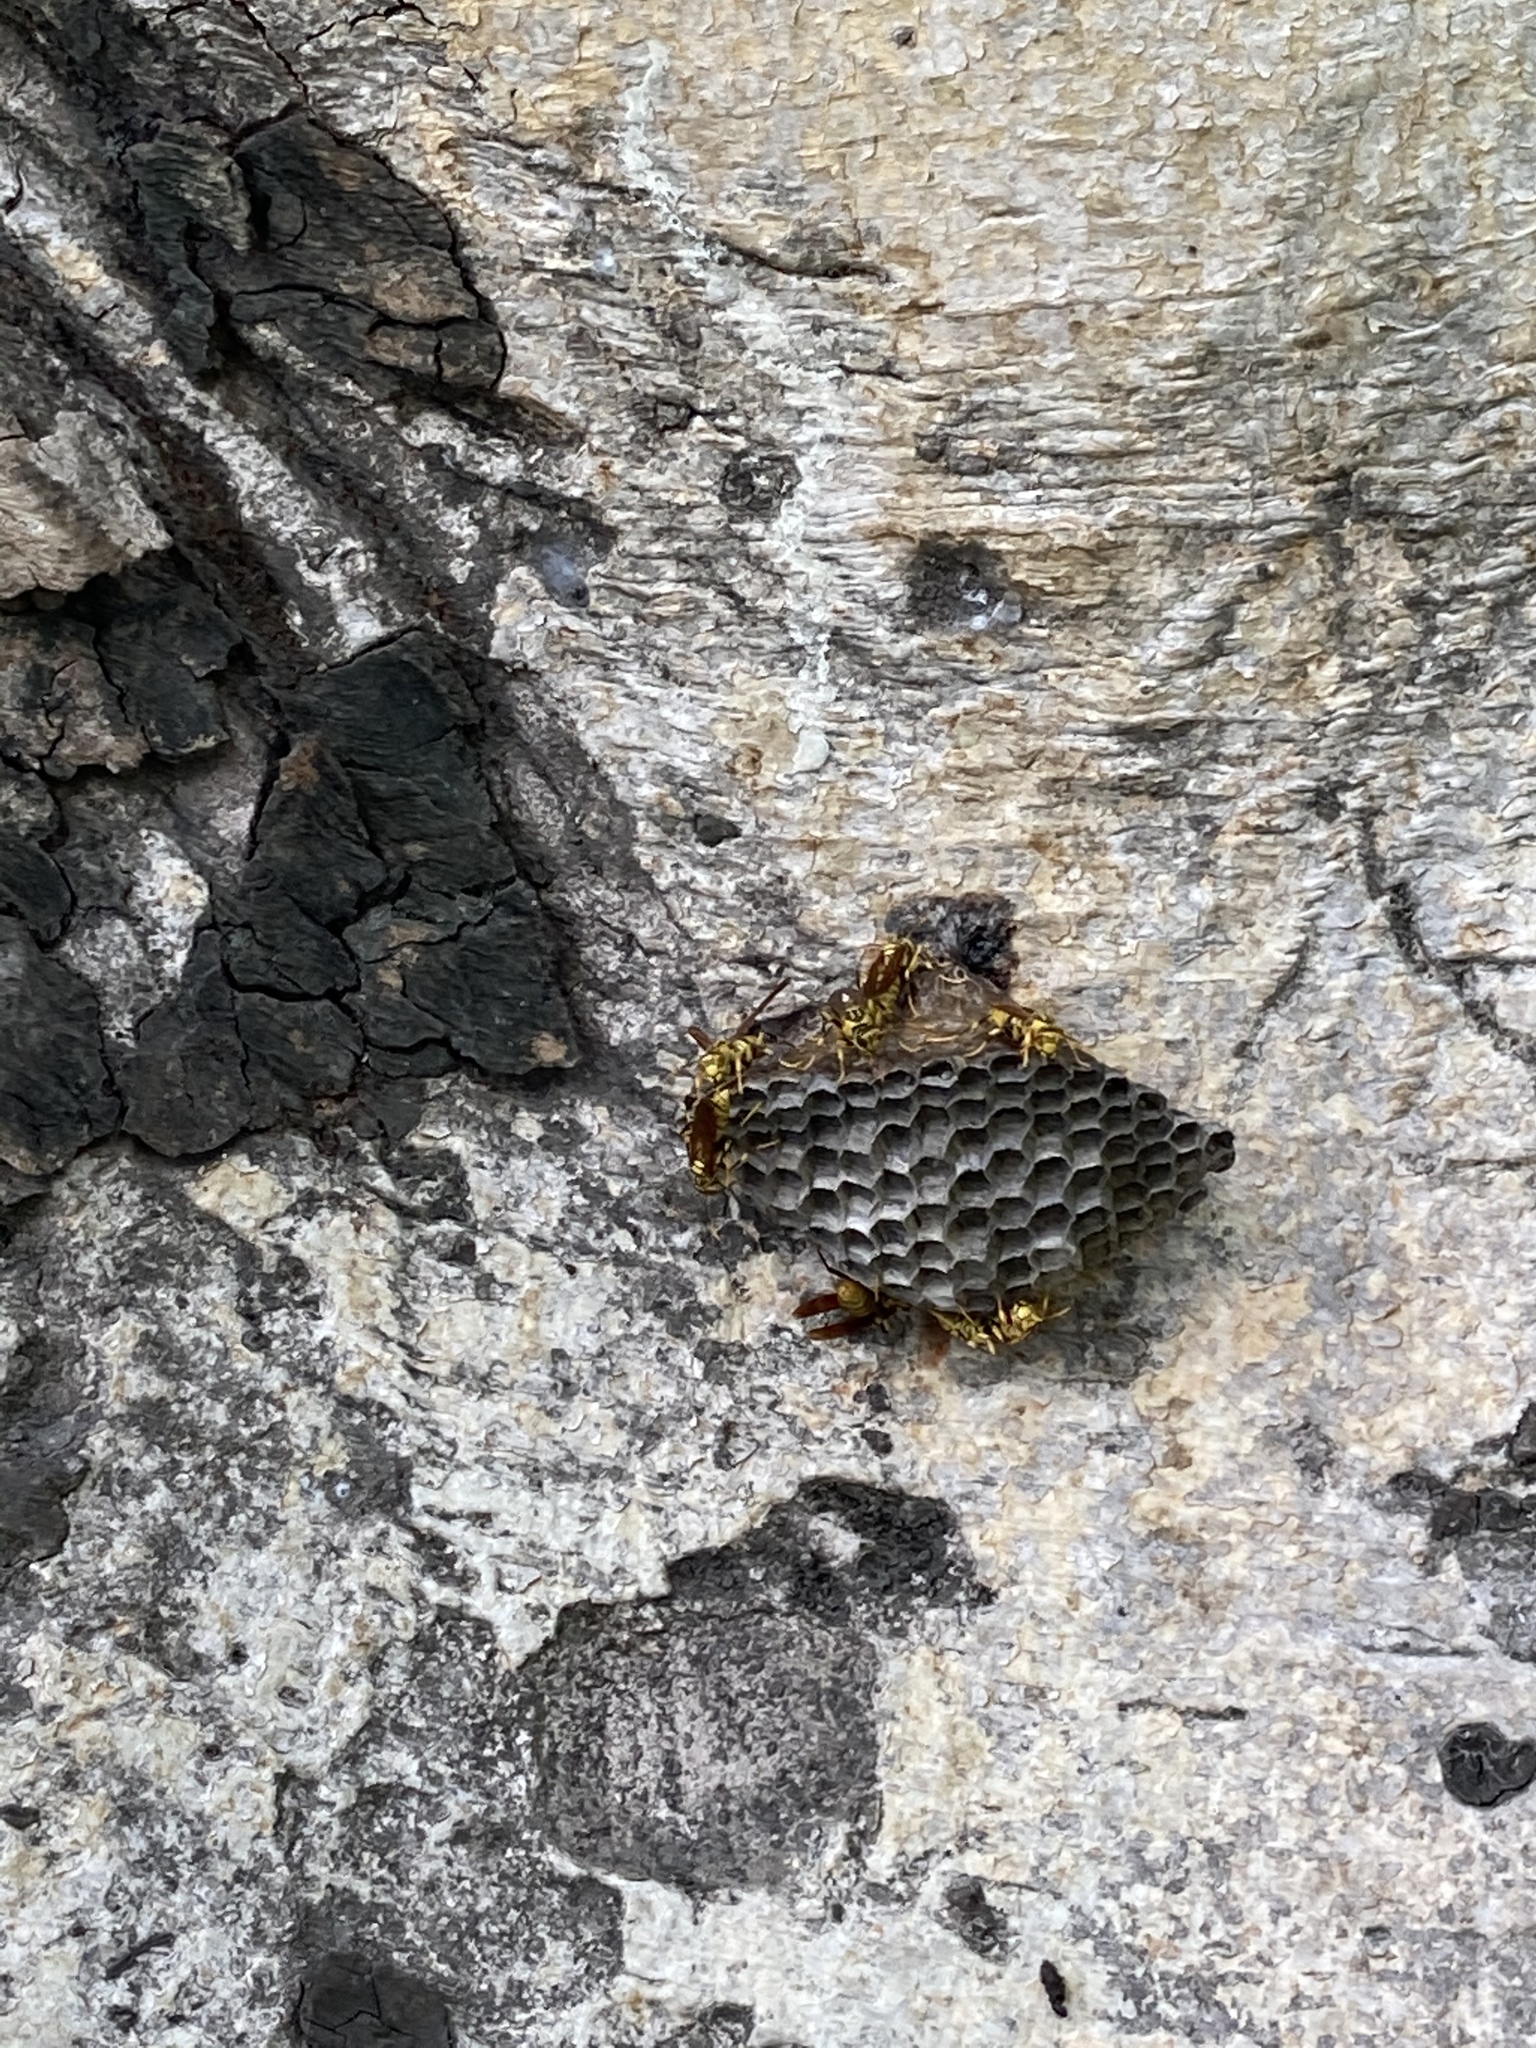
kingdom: Animalia
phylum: Arthropoda
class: Insecta
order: Hymenoptera
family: Eumenidae
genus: Polistes
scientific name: Polistes rothneyi
